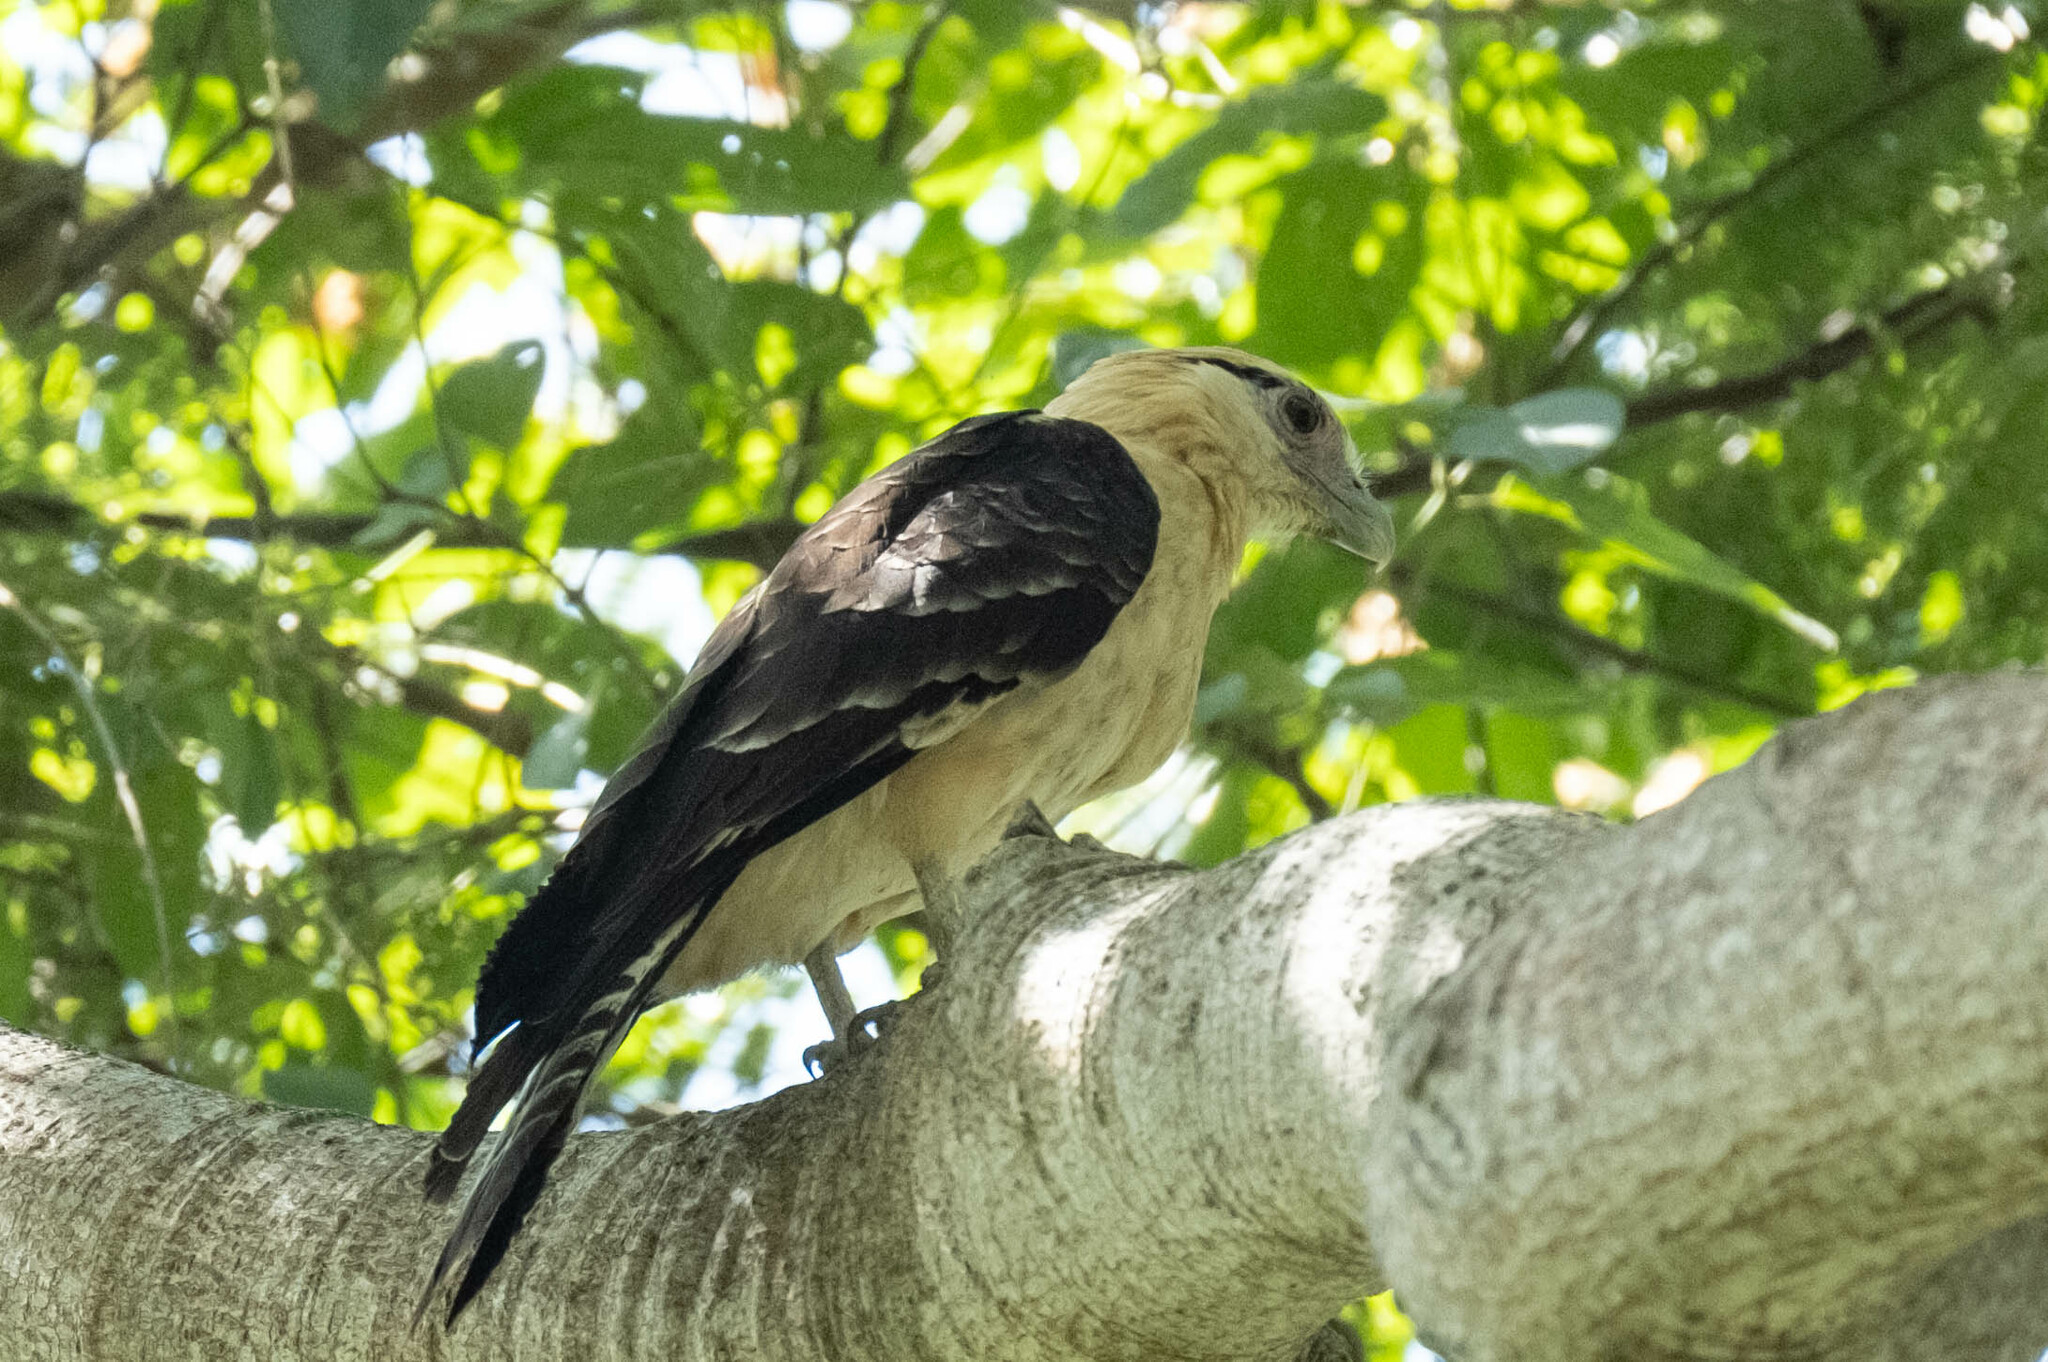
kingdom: Animalia
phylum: Chordata
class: Aves
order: Falconiformes
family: Falconidae
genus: Daptrius
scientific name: Daptrius
